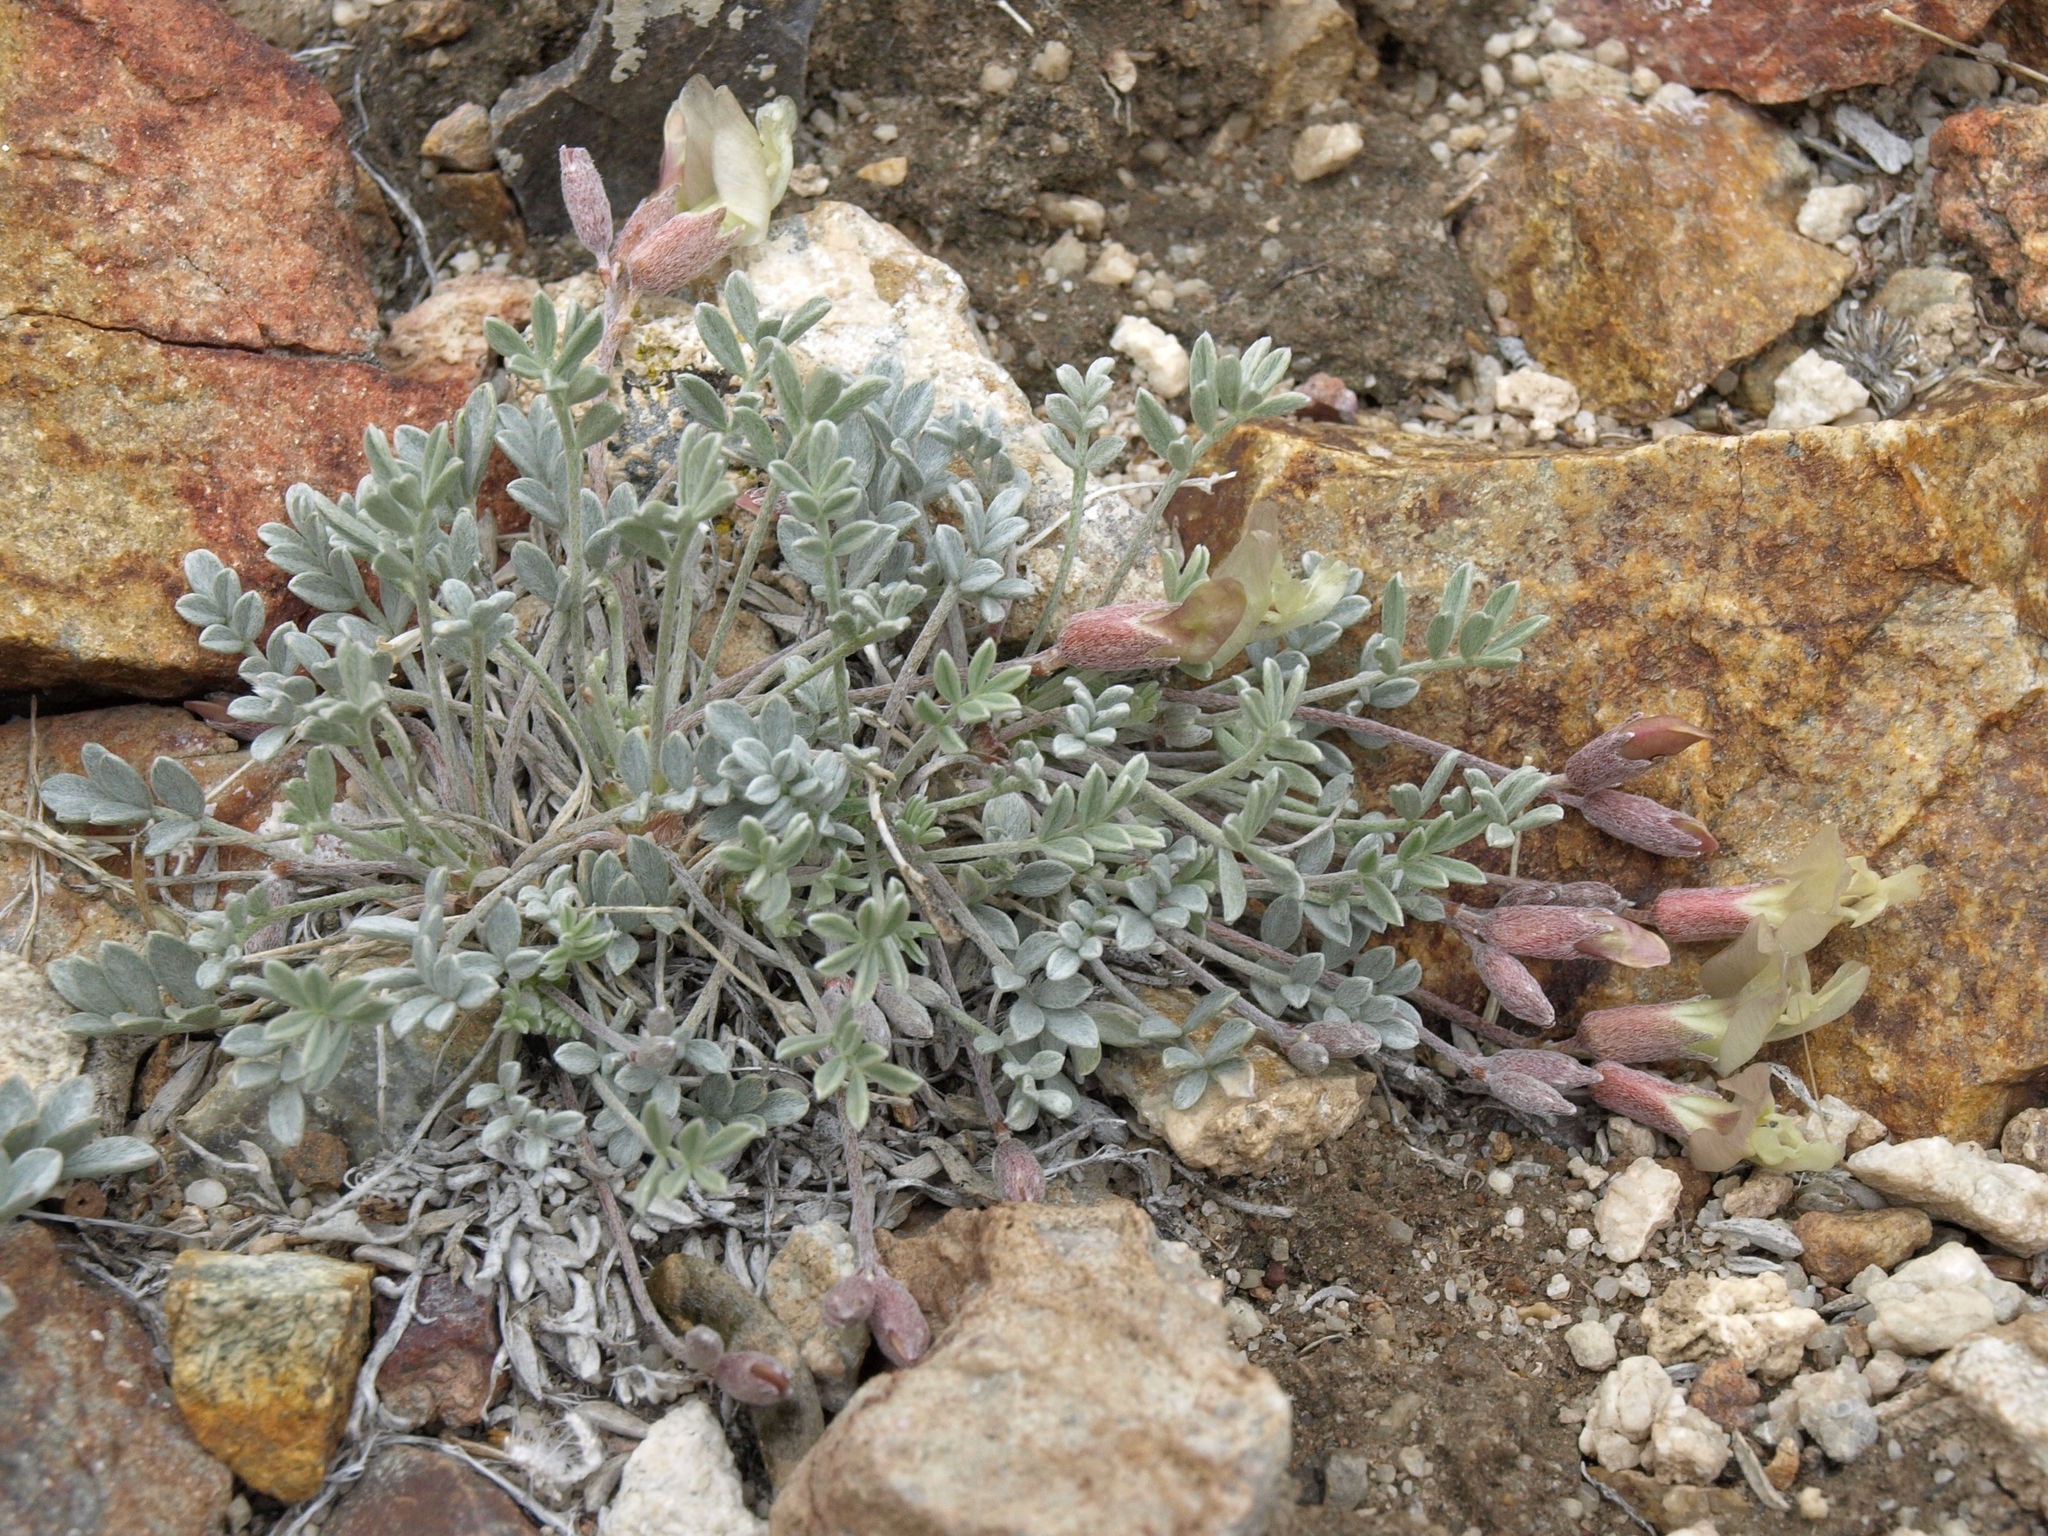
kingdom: Plantae
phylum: Tracheophyta
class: Magnoliopsida
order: Fabales
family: Fabaceae
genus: Astragalus
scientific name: Astragalus calycosus
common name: King's milkvetch
